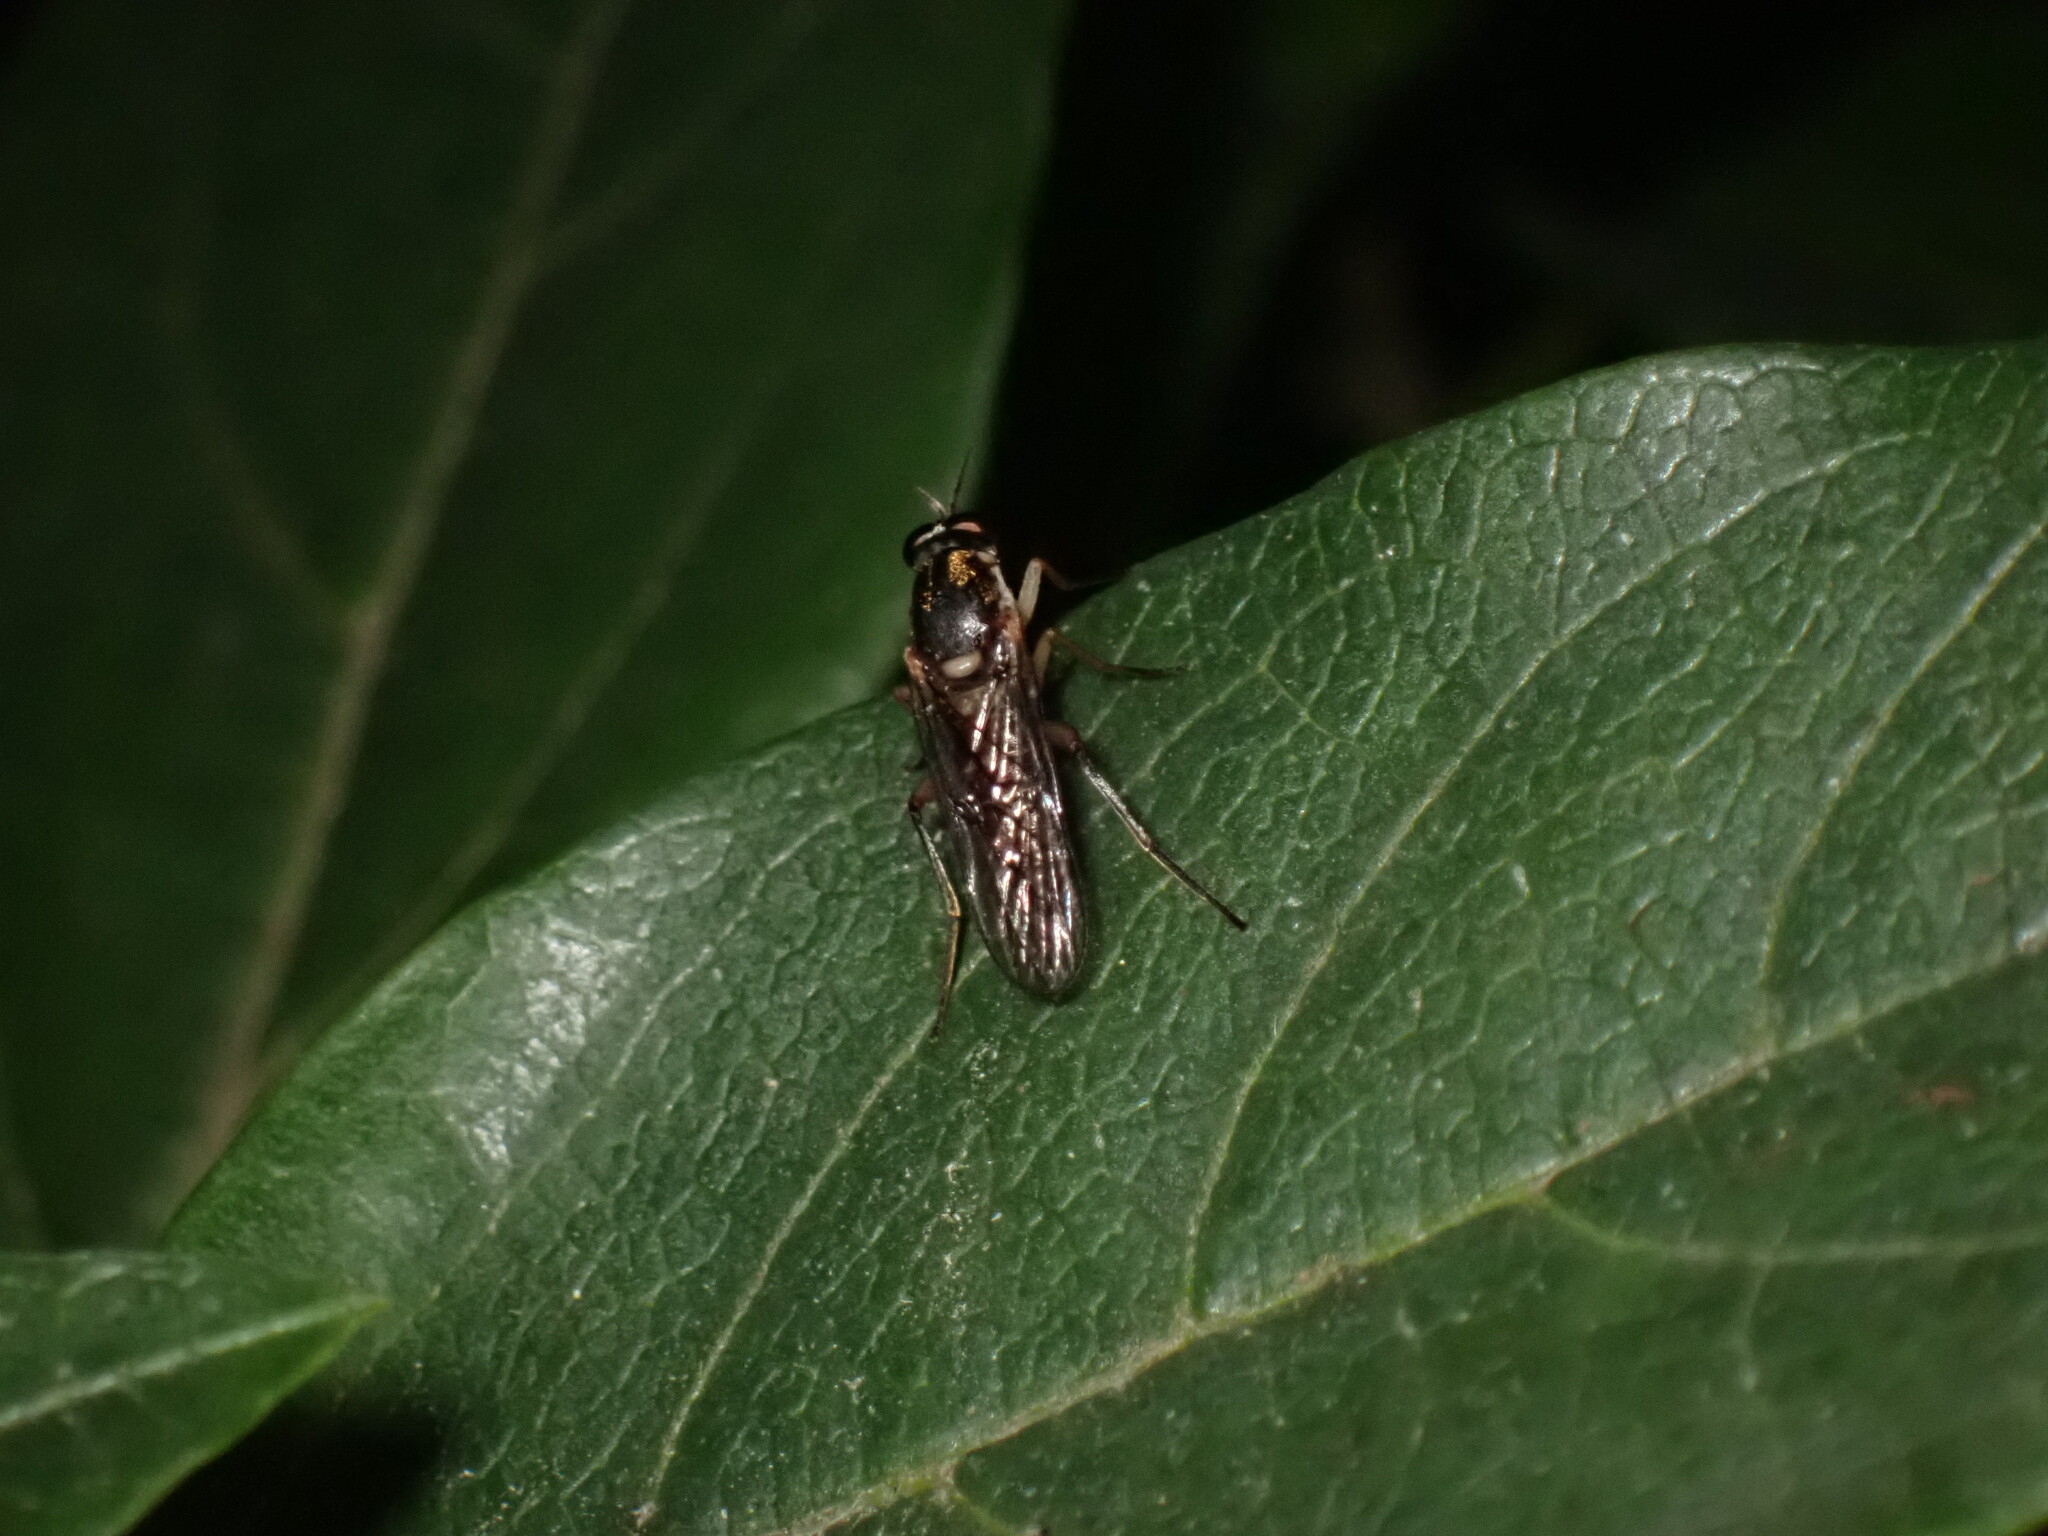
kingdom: Animalia
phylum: Arthropoda
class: Insecta
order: Diptera
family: Xylomyidae
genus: Solva
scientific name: Solva marginata
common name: Drab wood-soldierfly
